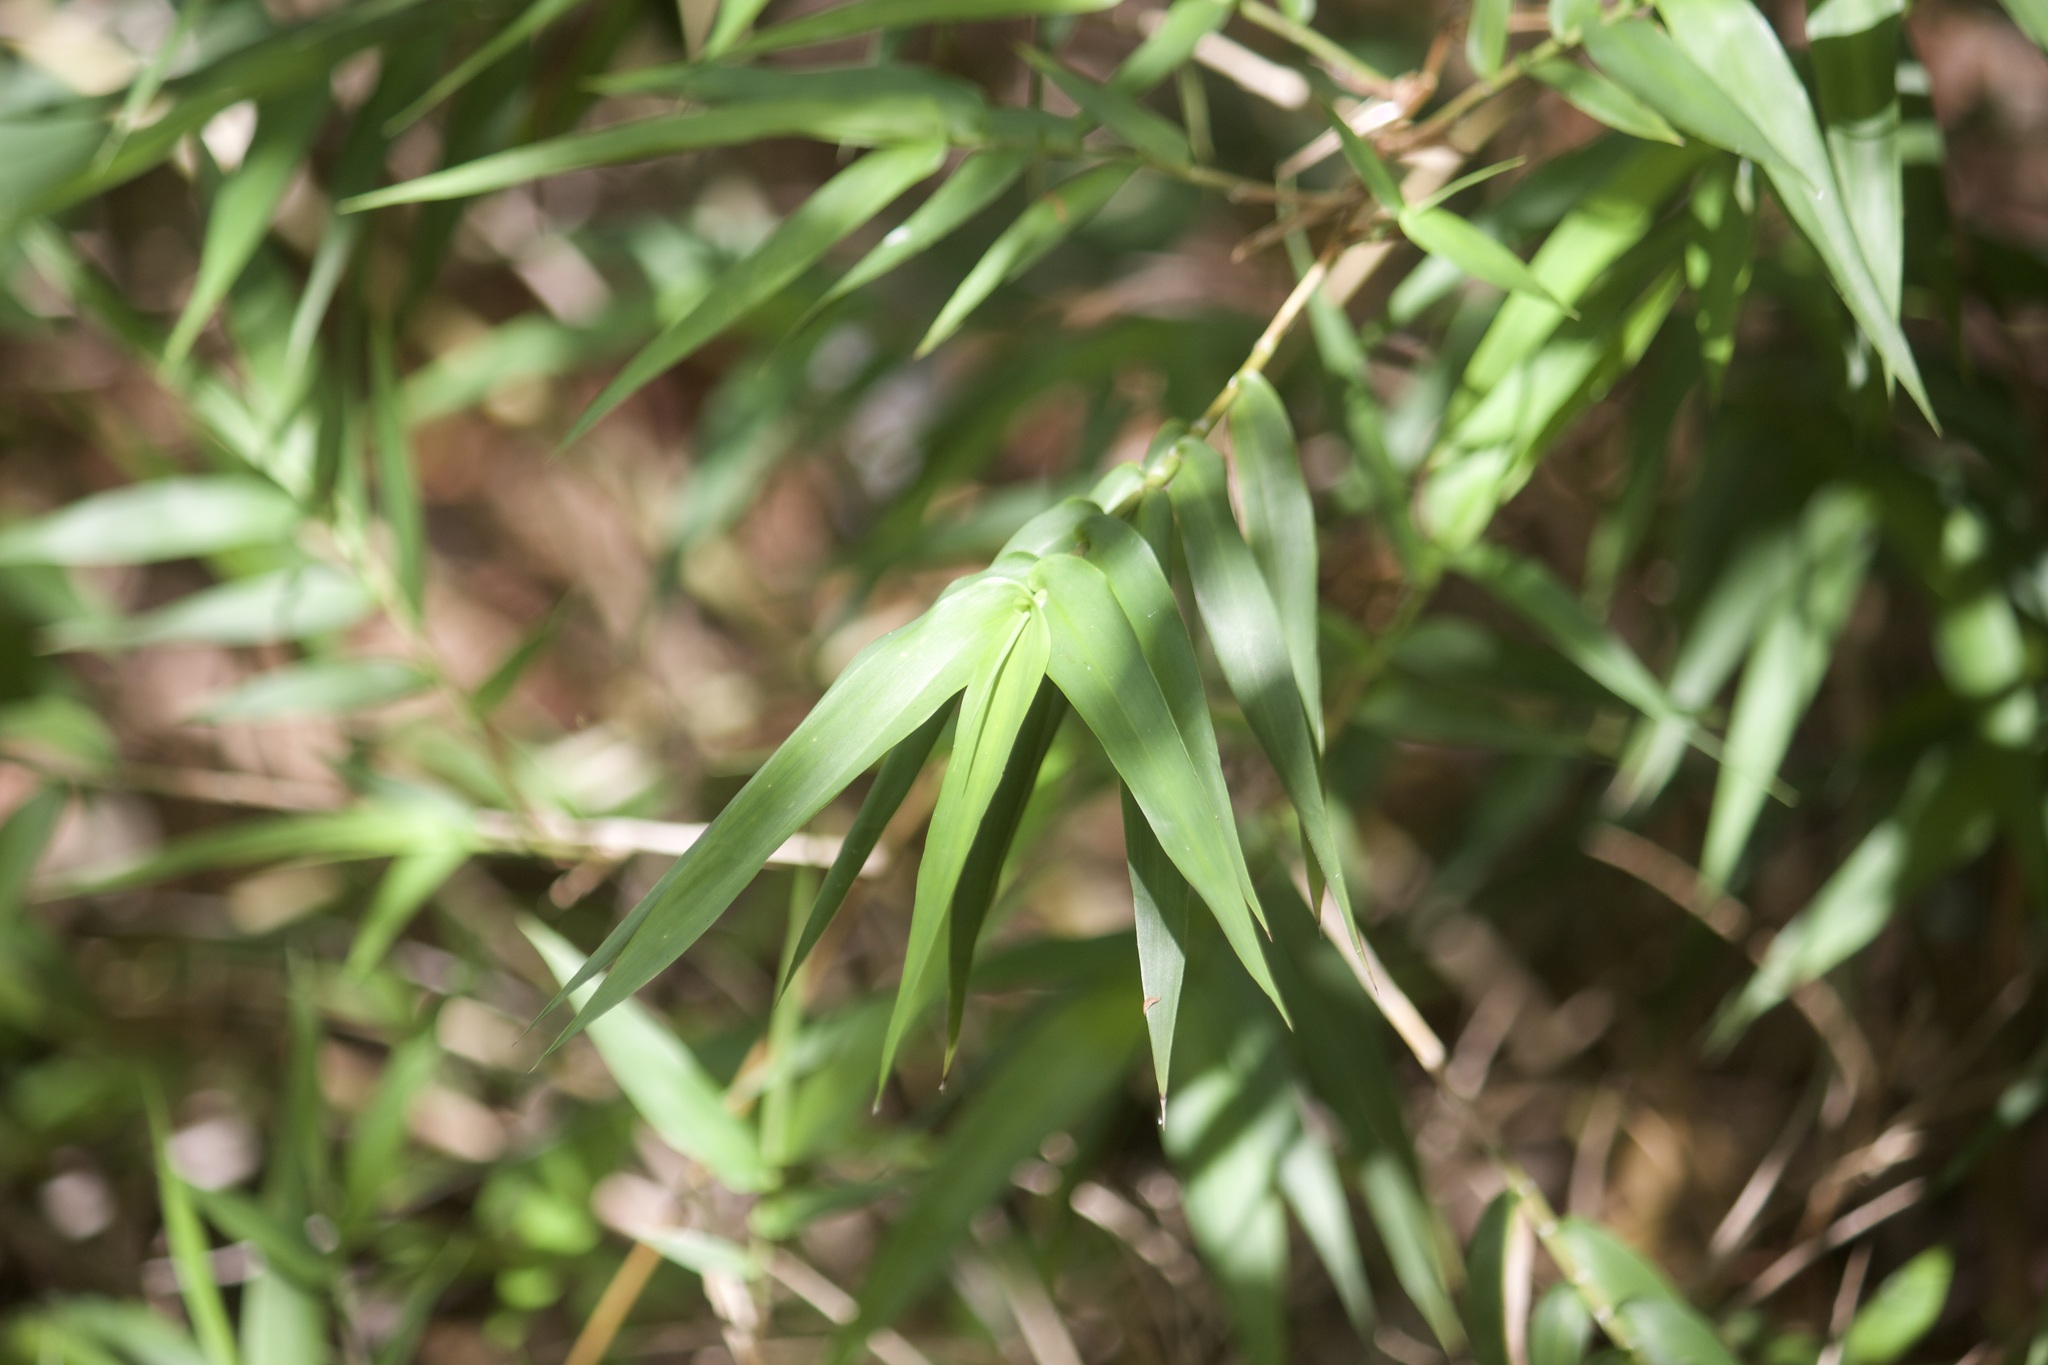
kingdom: Plantae
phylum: Tracheophyta
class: Liliopsida
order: Poales
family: Poaceae
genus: Lasiacis
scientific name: Lasiacis divaricata
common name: Smallcane
